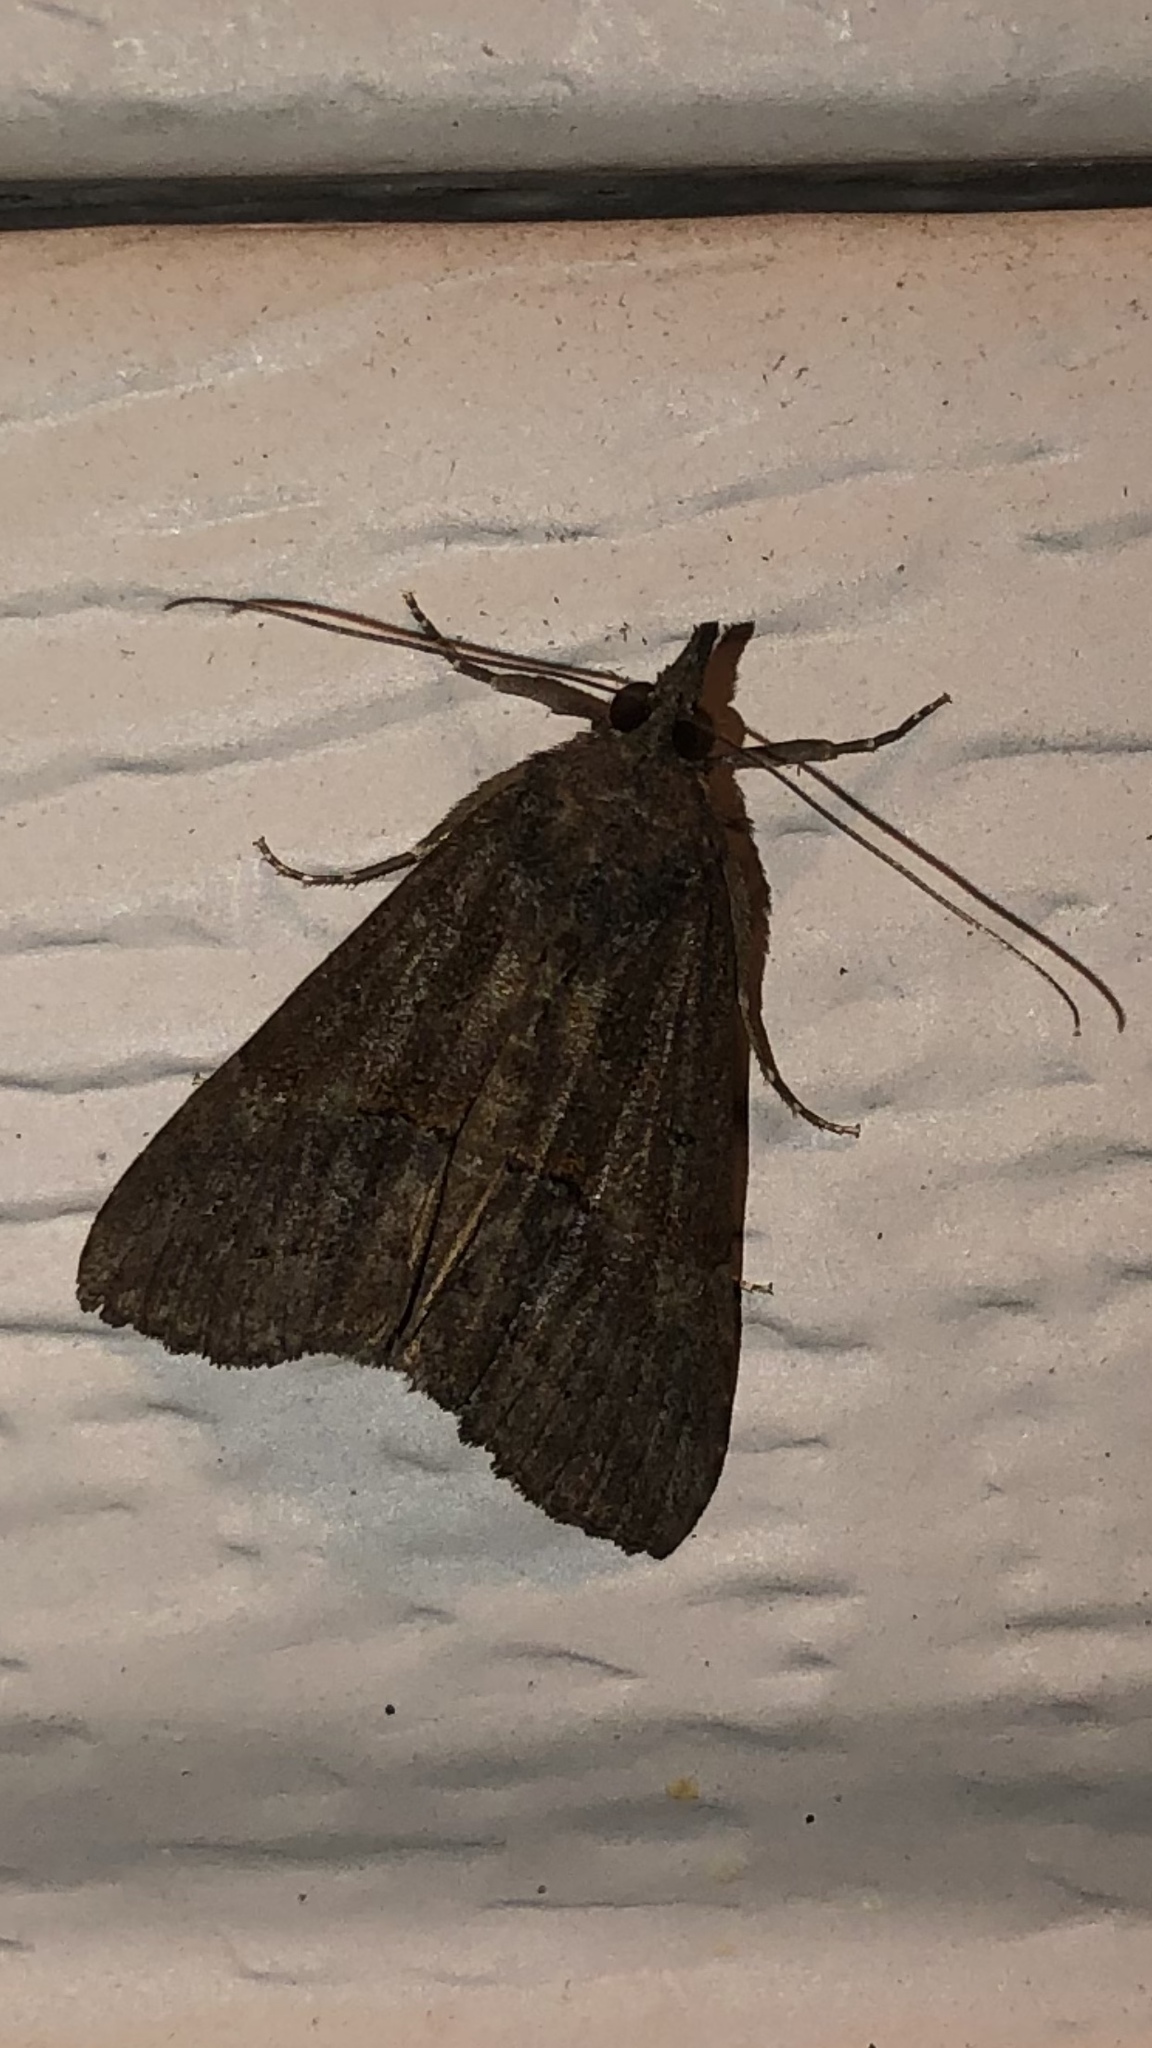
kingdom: Animalia
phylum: Arthropoda
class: Insecta
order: Lepidoptera
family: Erebidae
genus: Hypena
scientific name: Hypena scabra
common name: Green cloverworm
